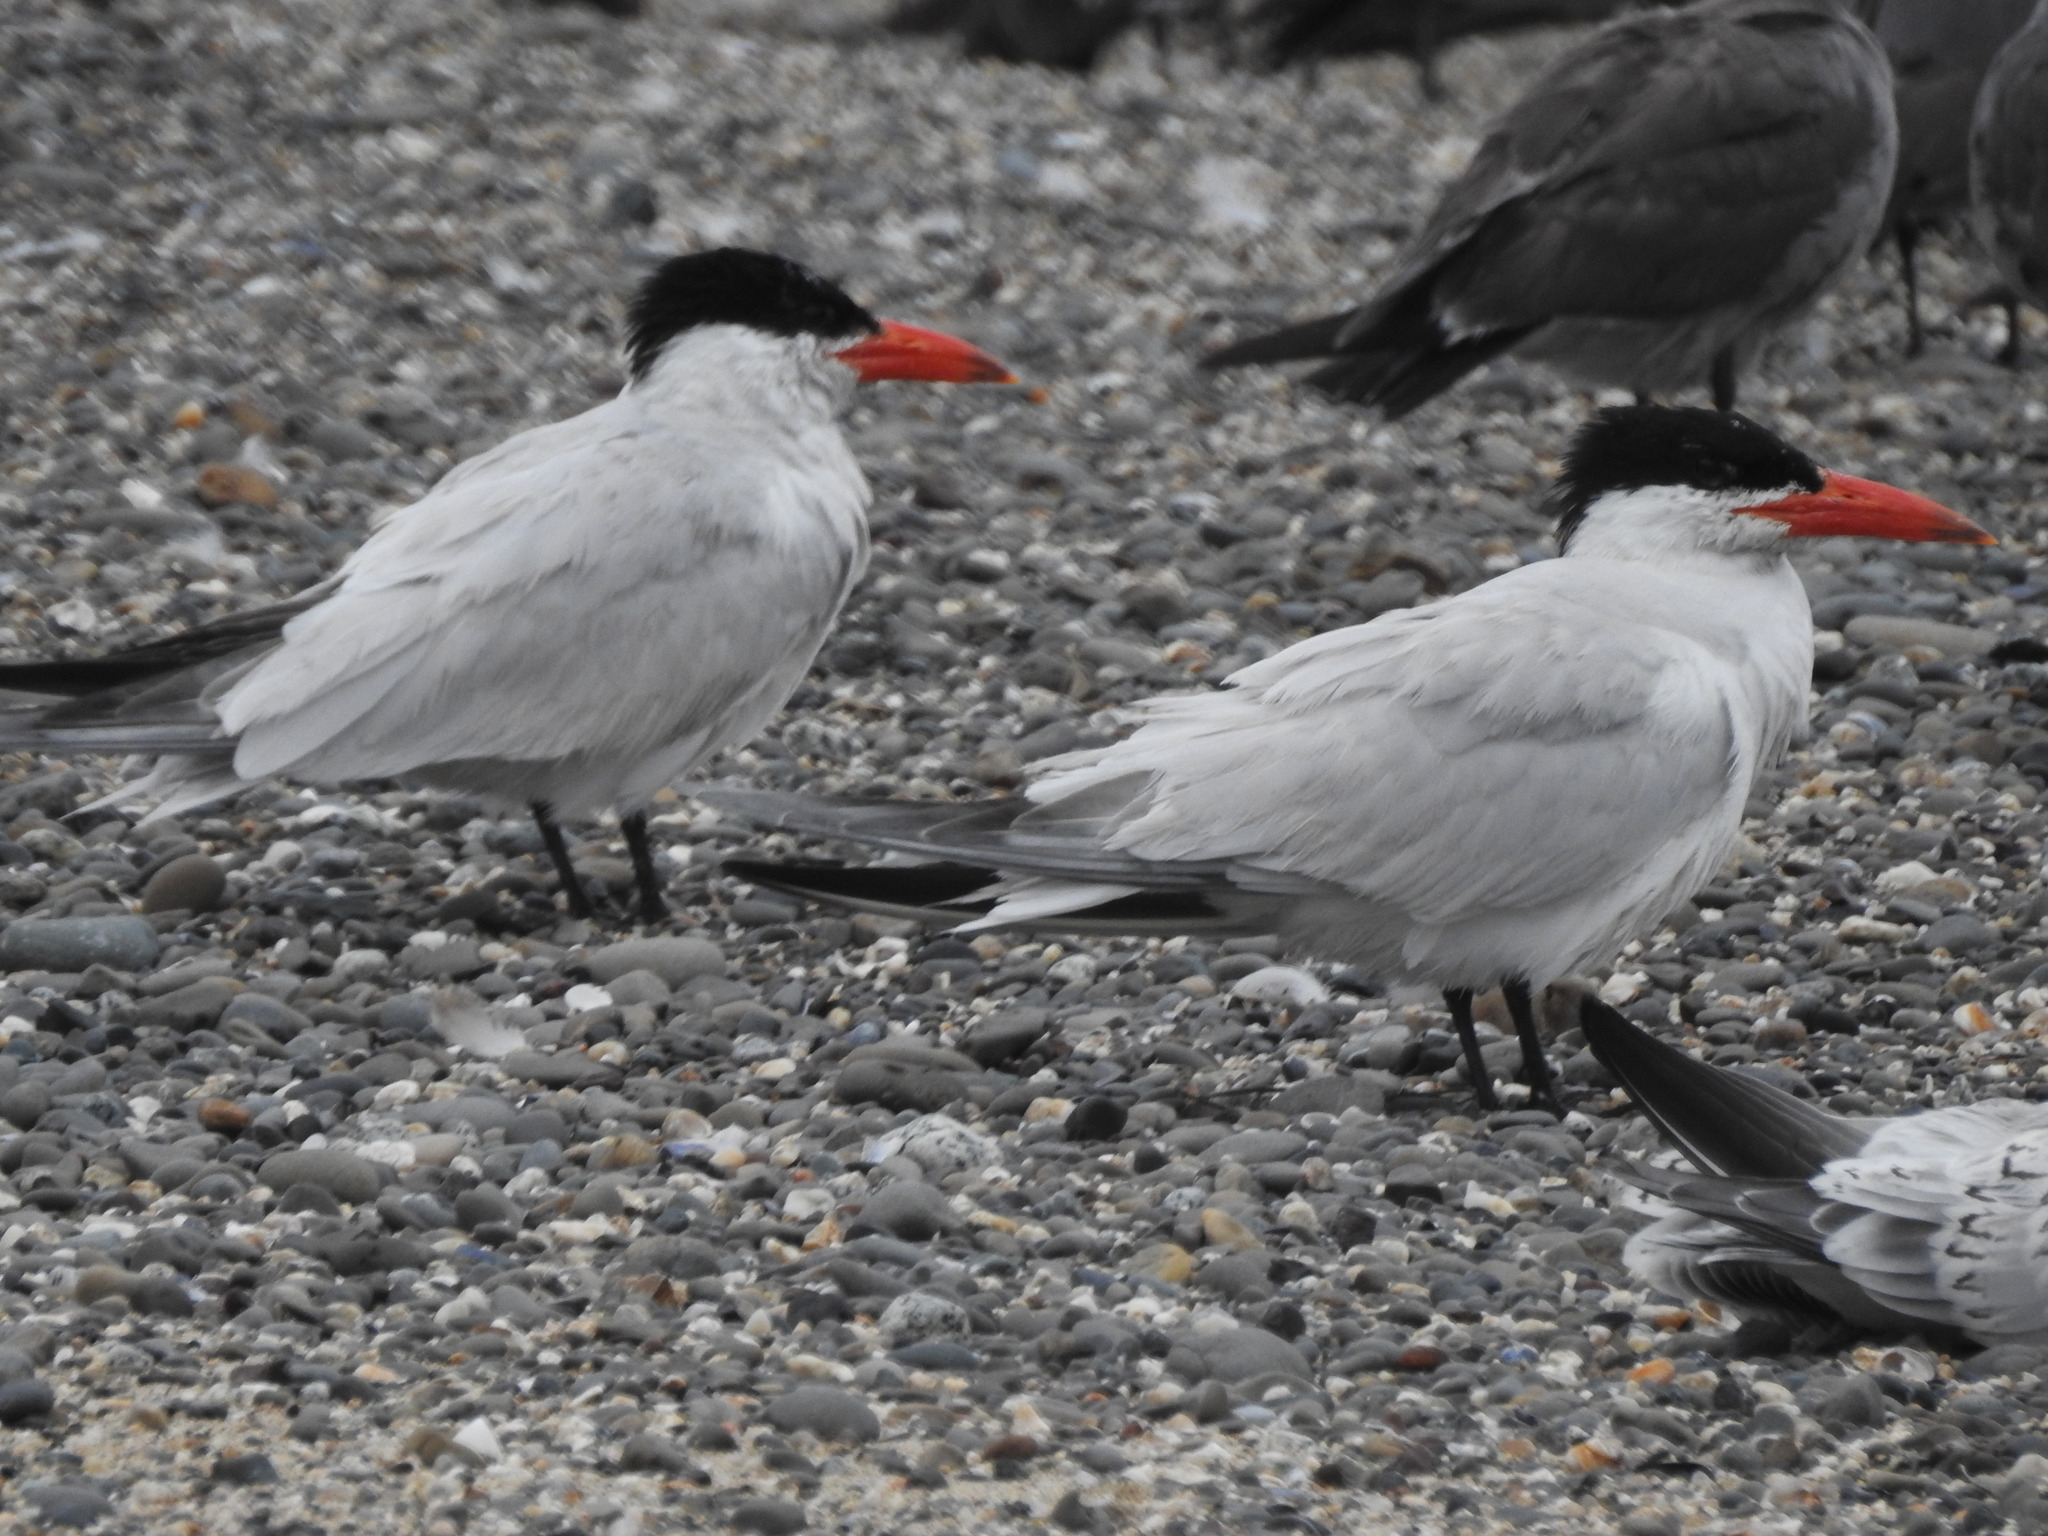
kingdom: Animalia
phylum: Chordata
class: Aves
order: Charadriiformes
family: Laridae
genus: Hydroprogne
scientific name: Hydroprogne caspia
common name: Caspian tern
